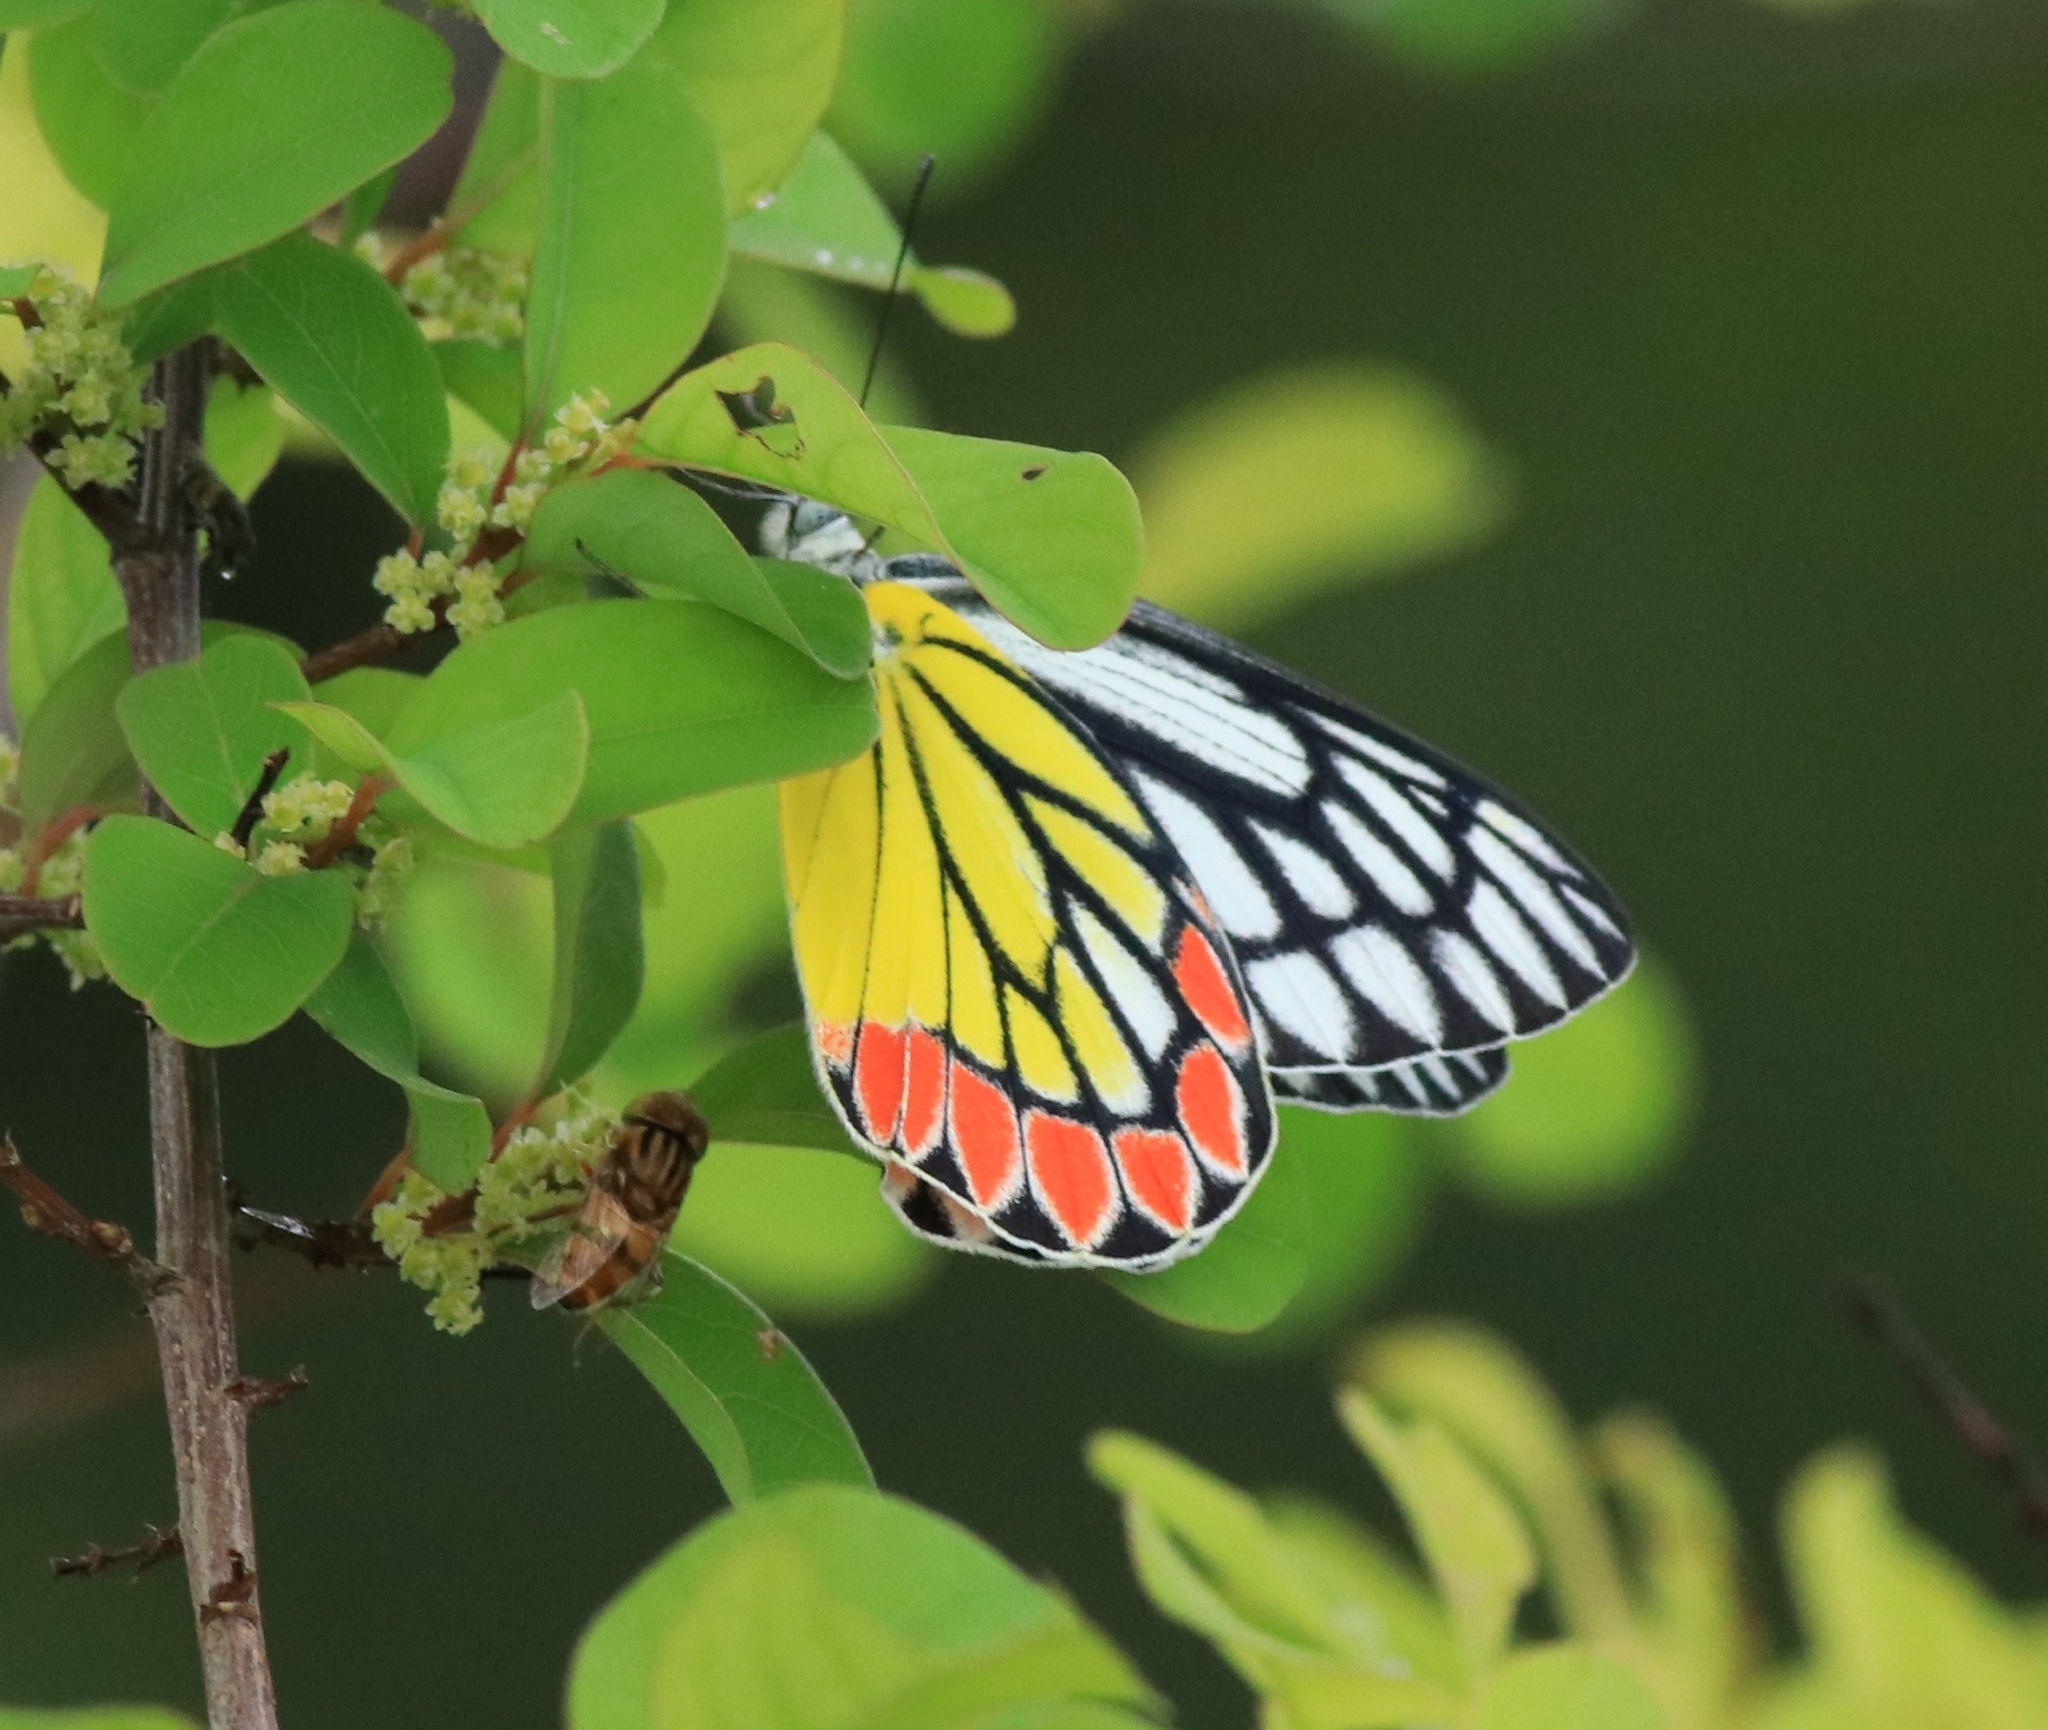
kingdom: Animalia
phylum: Arthropoda
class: Insecta
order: Lepidoptera
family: Pieridae
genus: Delias
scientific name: Delias eucharis
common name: Common jezebel
